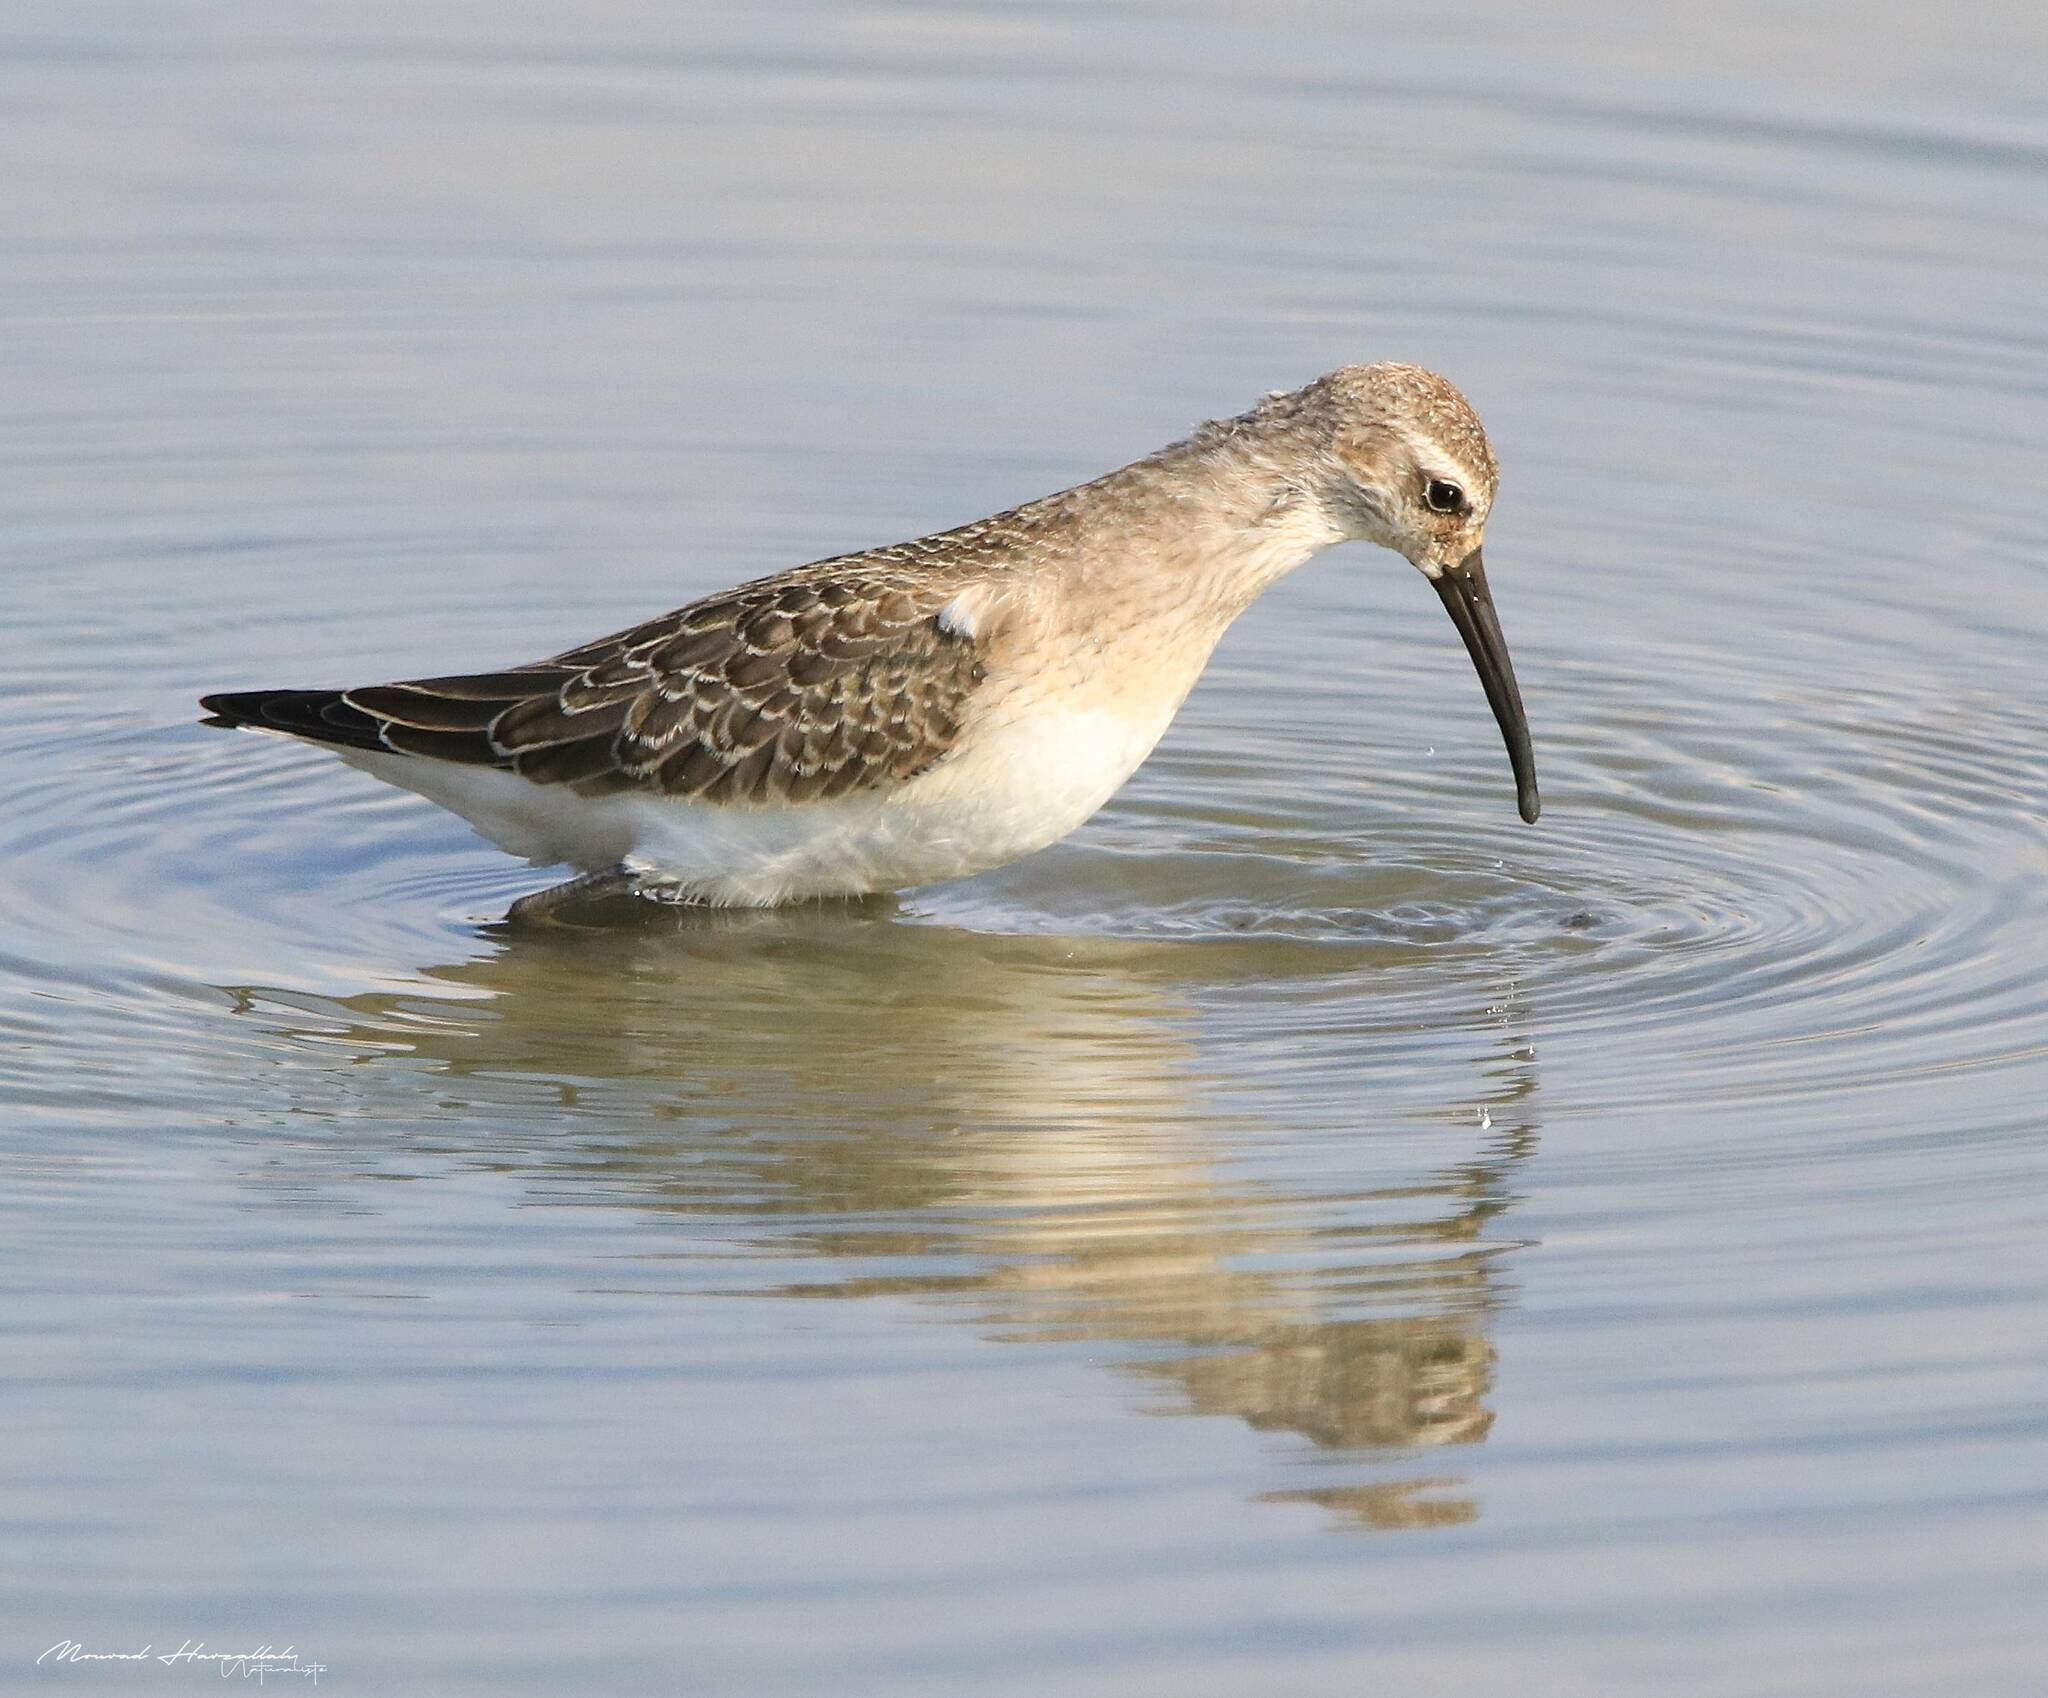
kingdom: Animalia
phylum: Chordata
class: Aves
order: Charadriiformes
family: Scolopacidae
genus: Calidris
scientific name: Calidris ferruginea
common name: Curlew sandpiper
